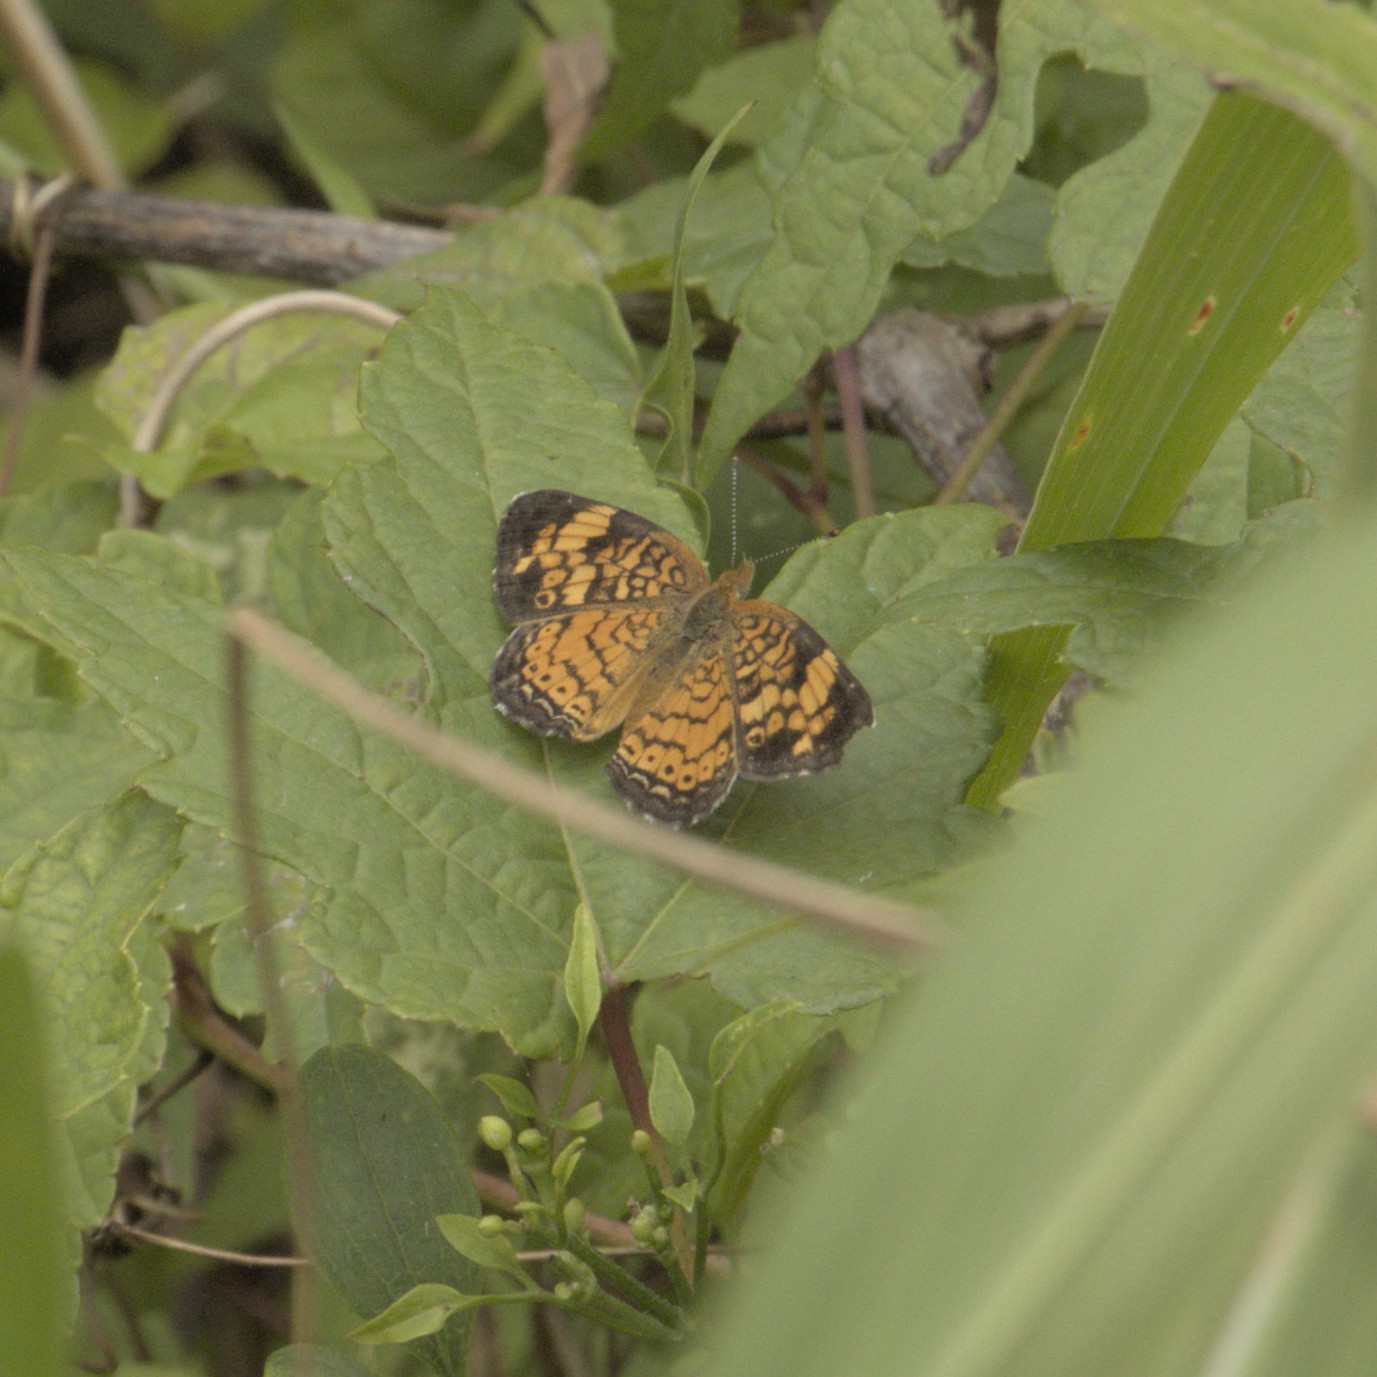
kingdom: Animalia
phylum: Arthropoda
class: Insecta
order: Lepidoptera
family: Nymphalidae
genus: Phyciodes
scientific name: Phyciodes tharos
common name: Pearl crescent
